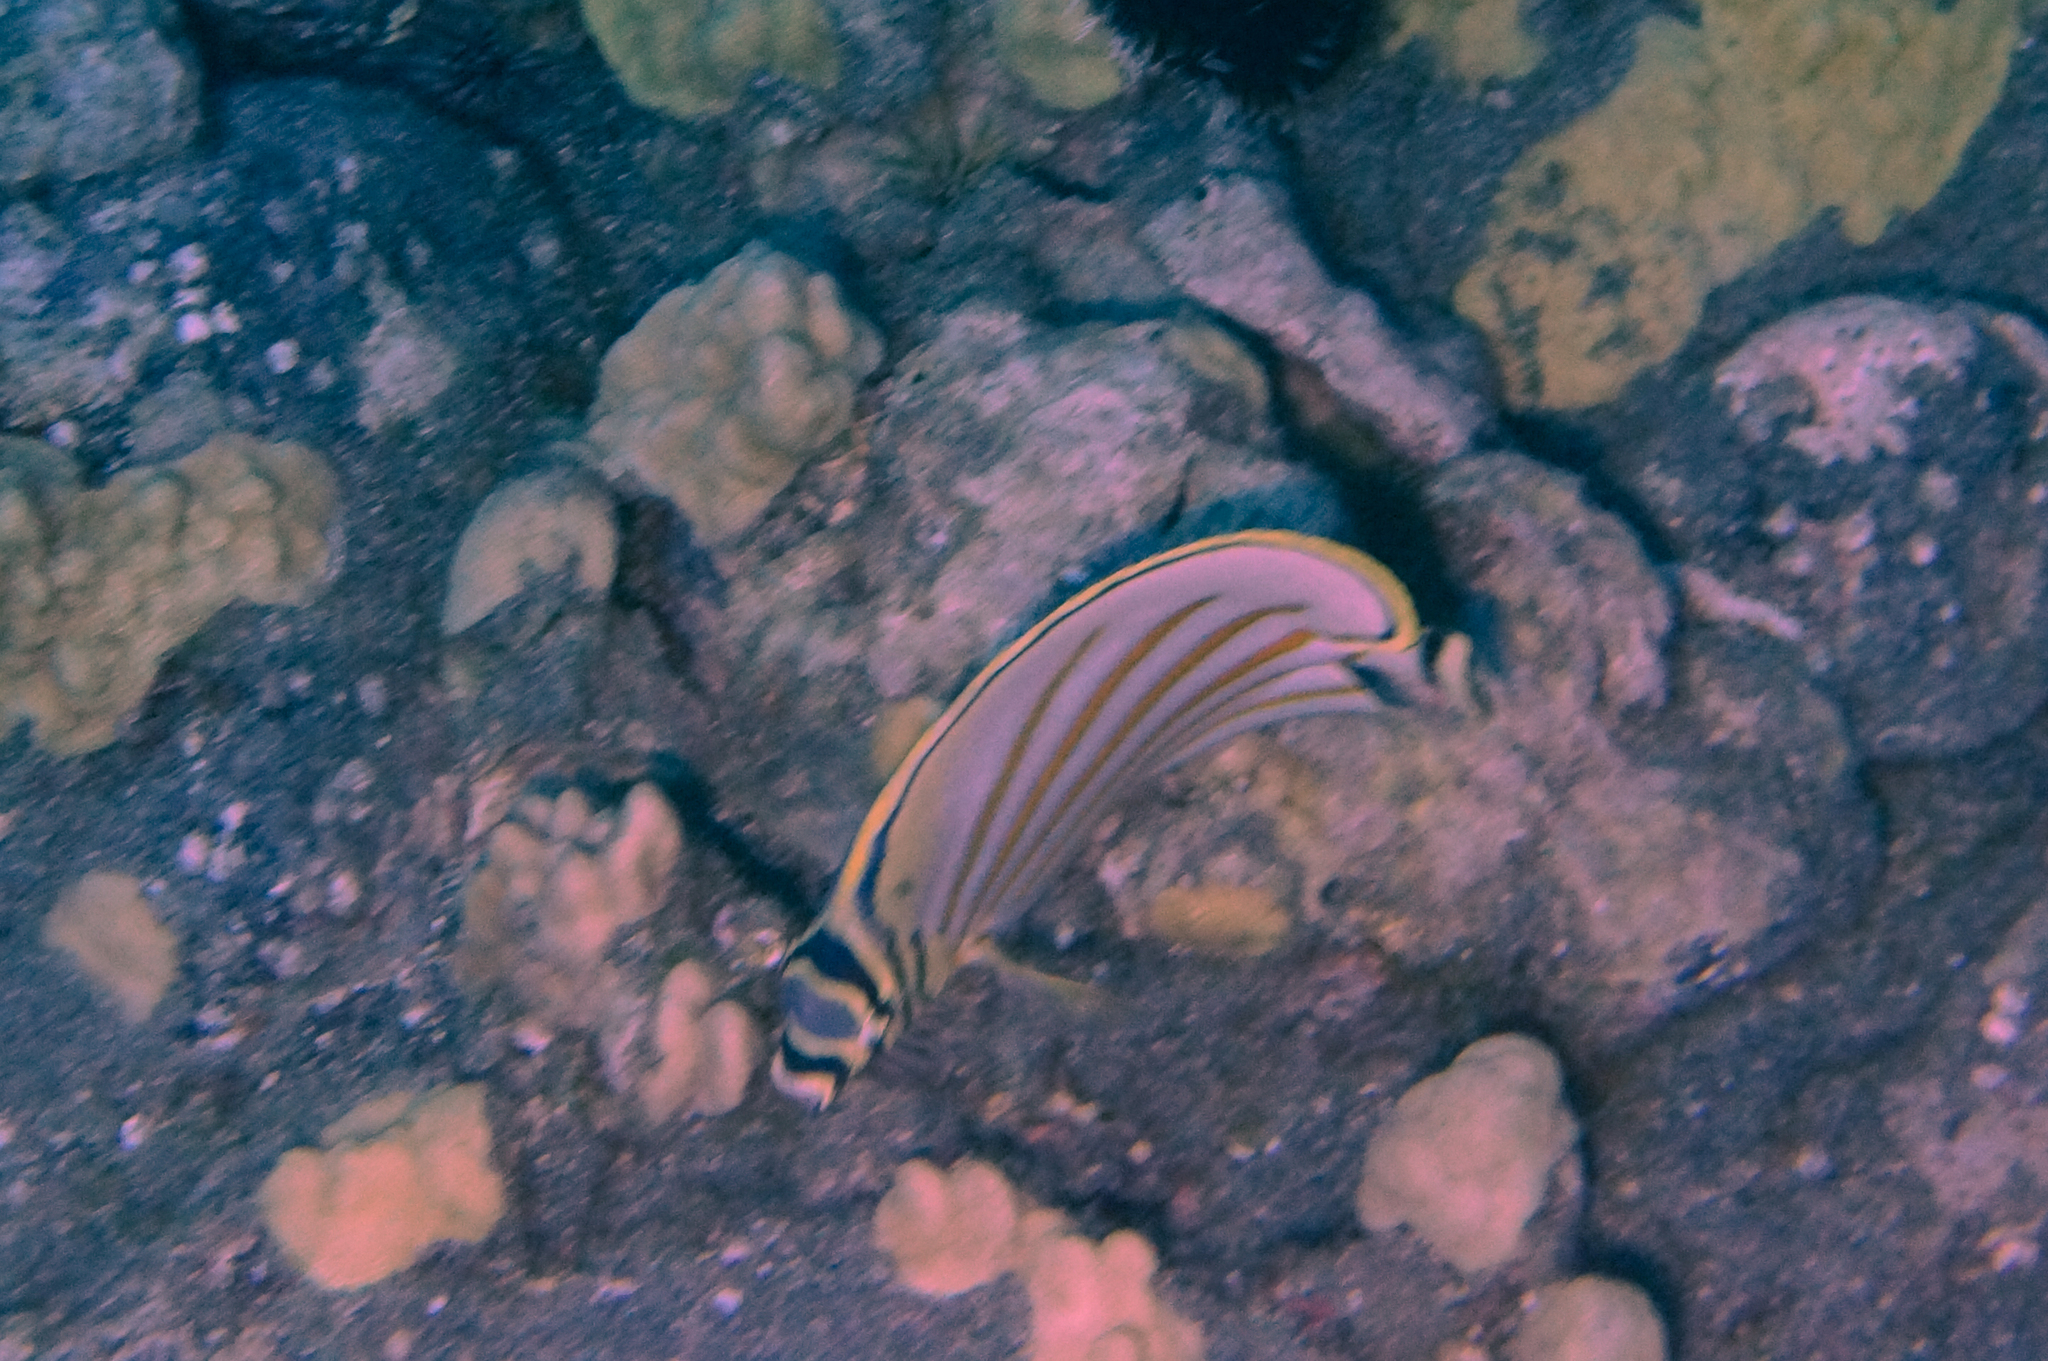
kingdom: Animalia
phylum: Chordata
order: Perciformes
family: Chaetodontidae
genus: Chaetodon
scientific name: Chaetodon ornatissimus
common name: Ornate butterflyfish
